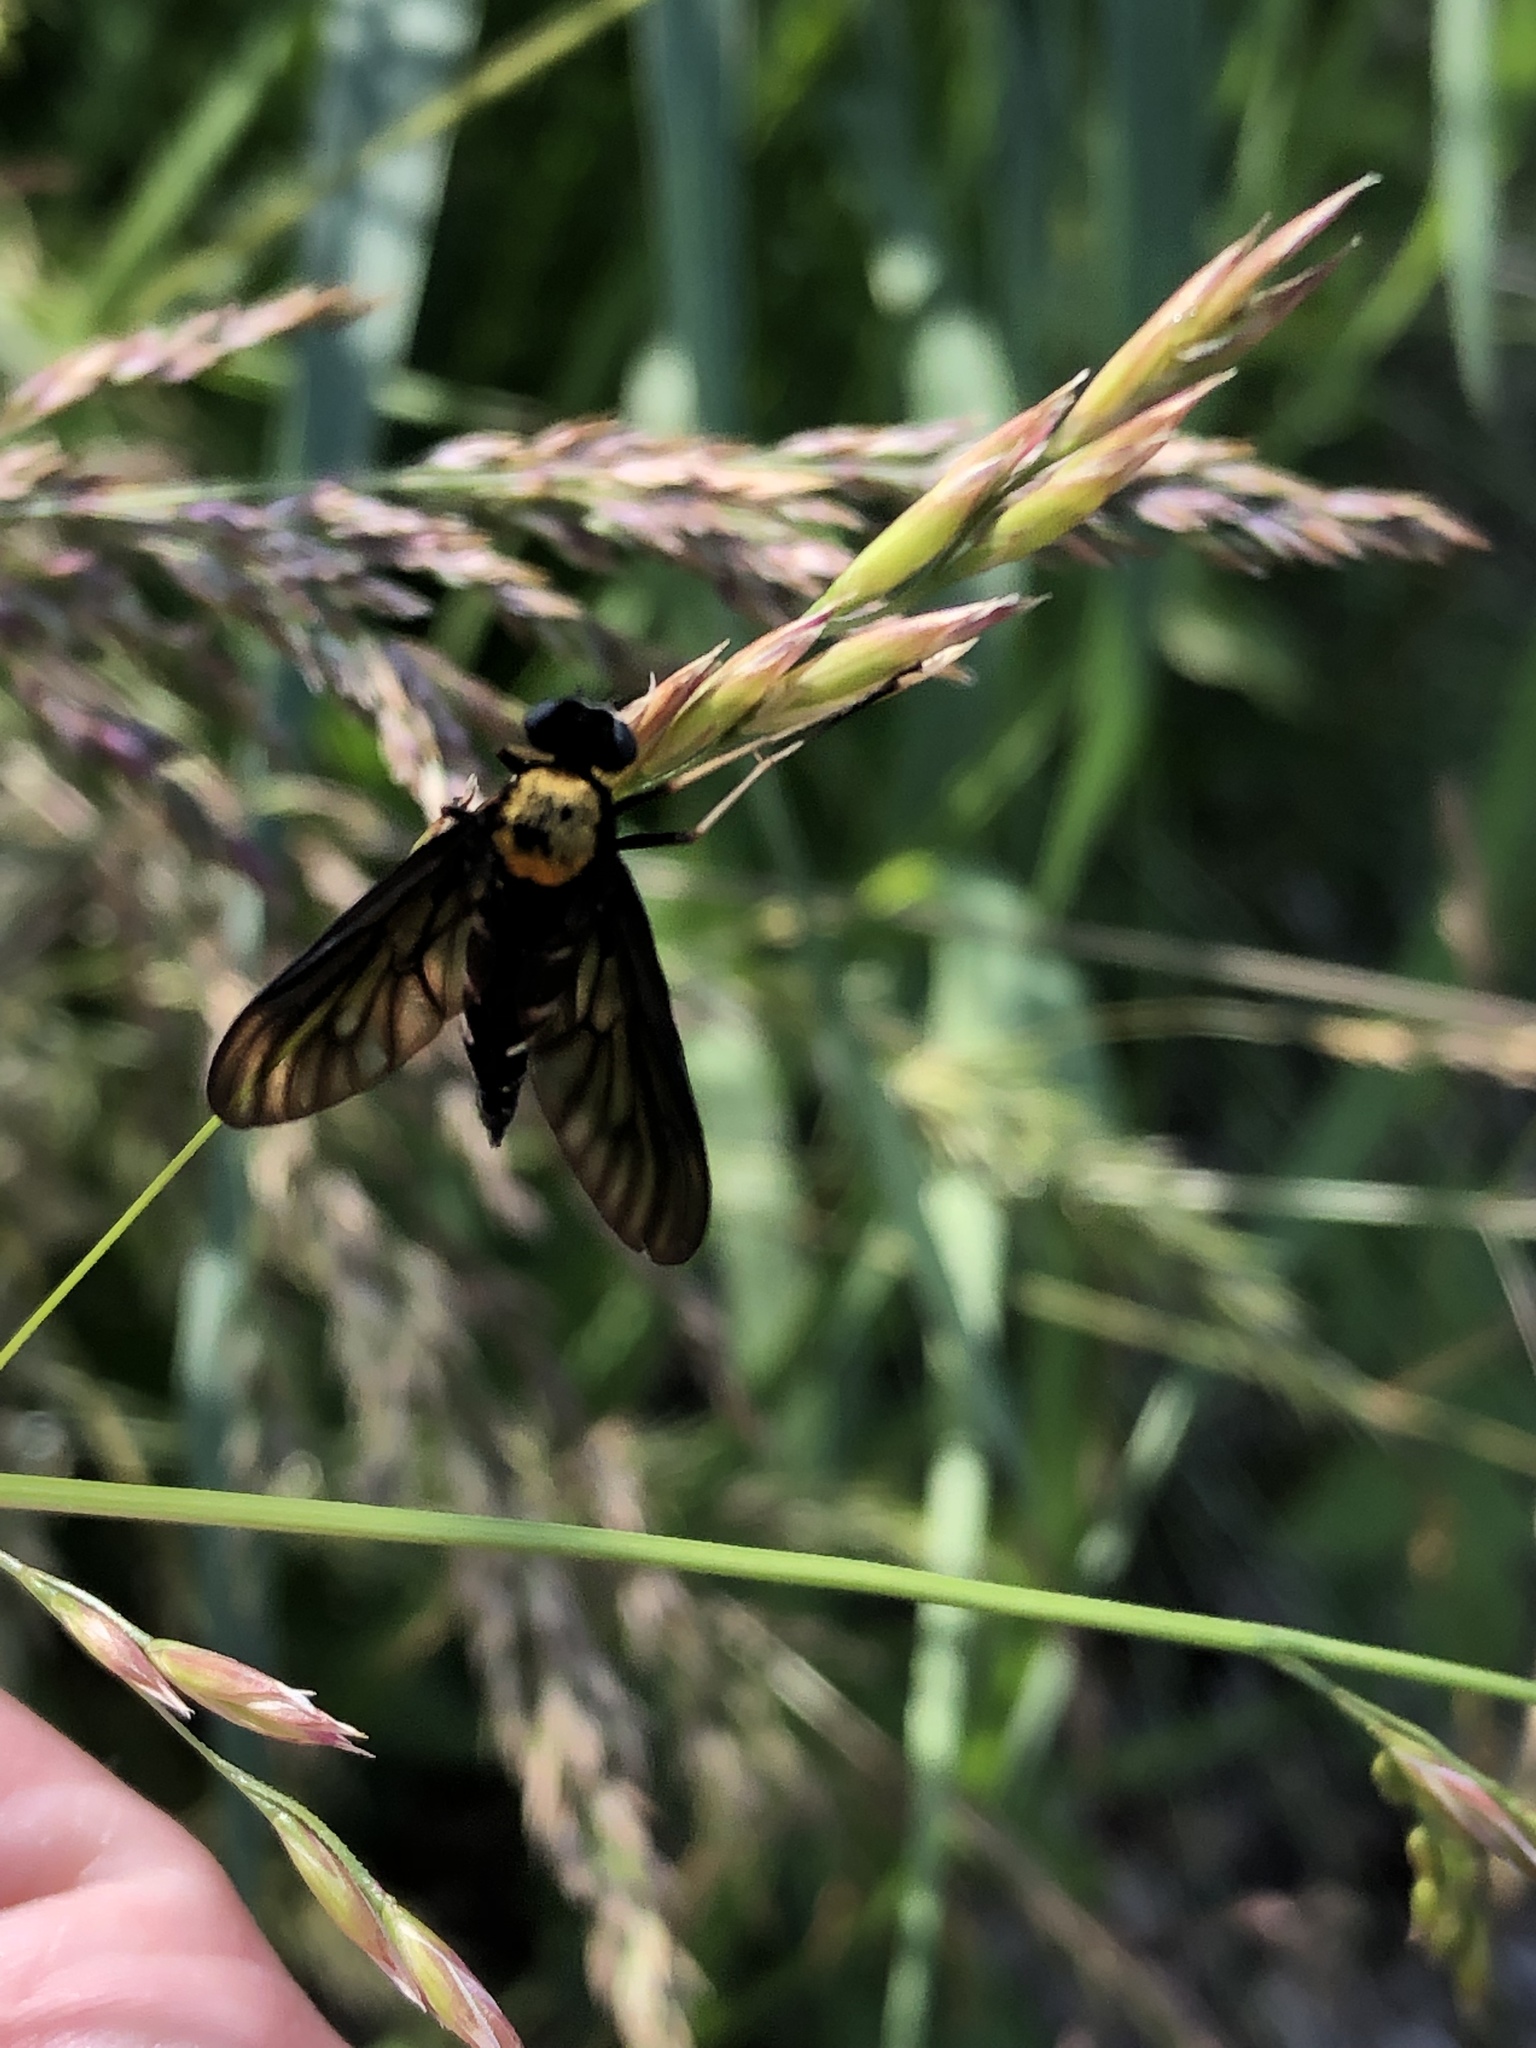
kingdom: Animalia
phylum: Arthropoda
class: Insecta
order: Diptera
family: Rhagionidae
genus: Chrysopilus
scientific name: Chrysopilus thoracicus
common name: Golden-backed snipe fly
